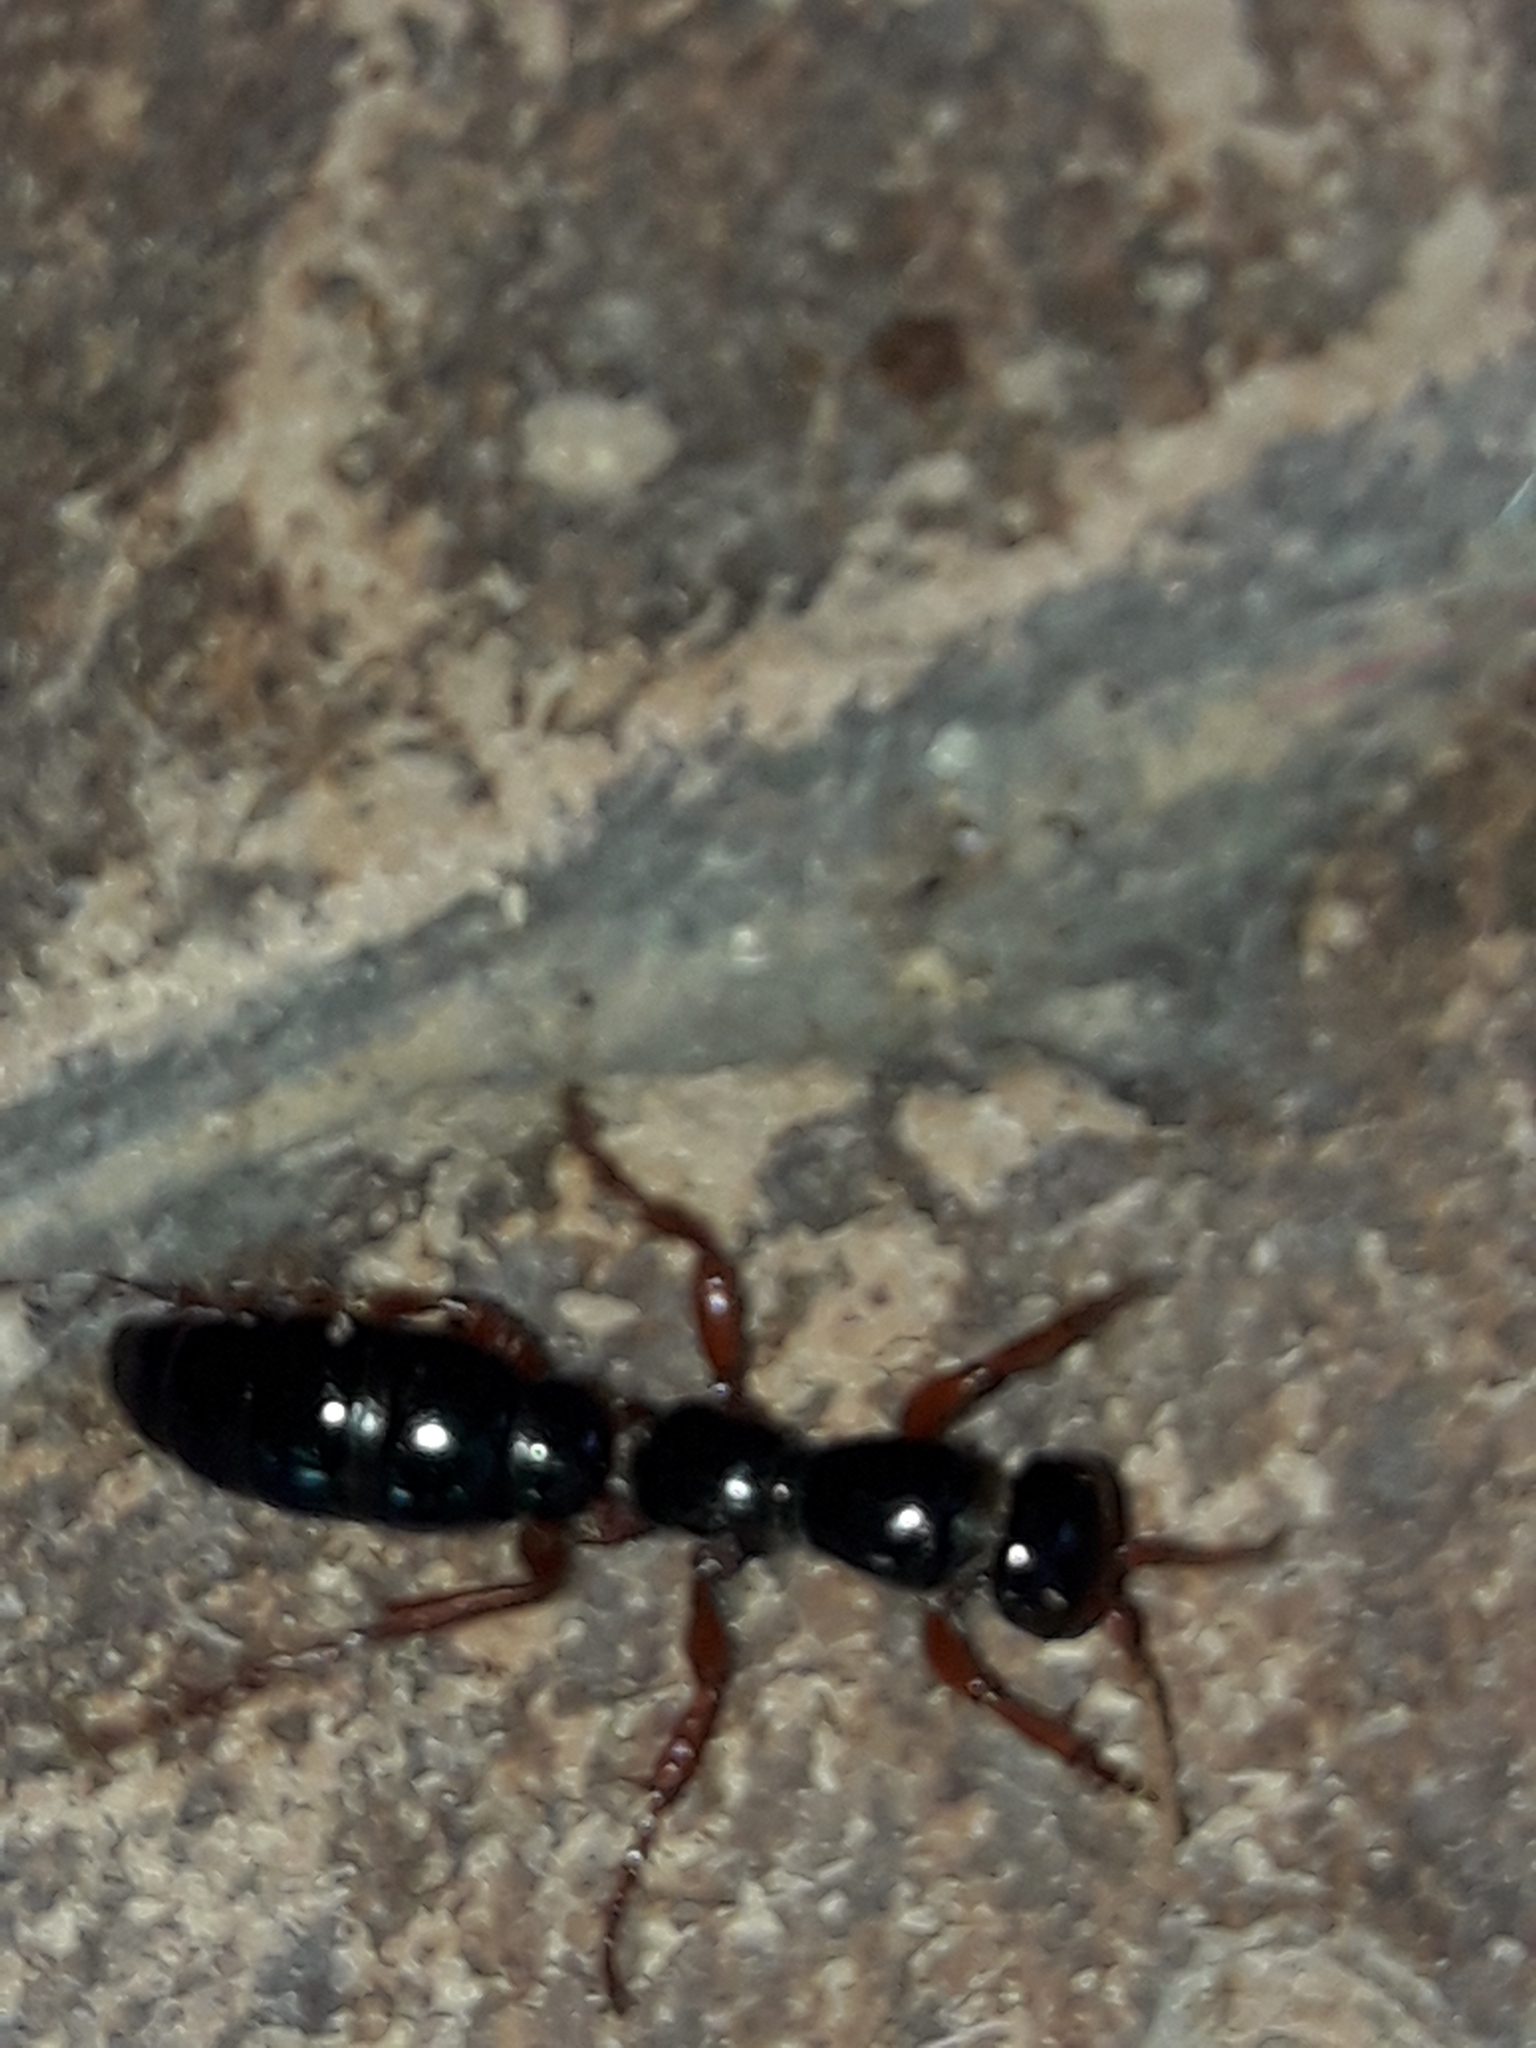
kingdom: Animalia
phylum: Arthropoda
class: Insecta
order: Hymenoptera
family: Tiphiidae
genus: Diamma
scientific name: Diamma
